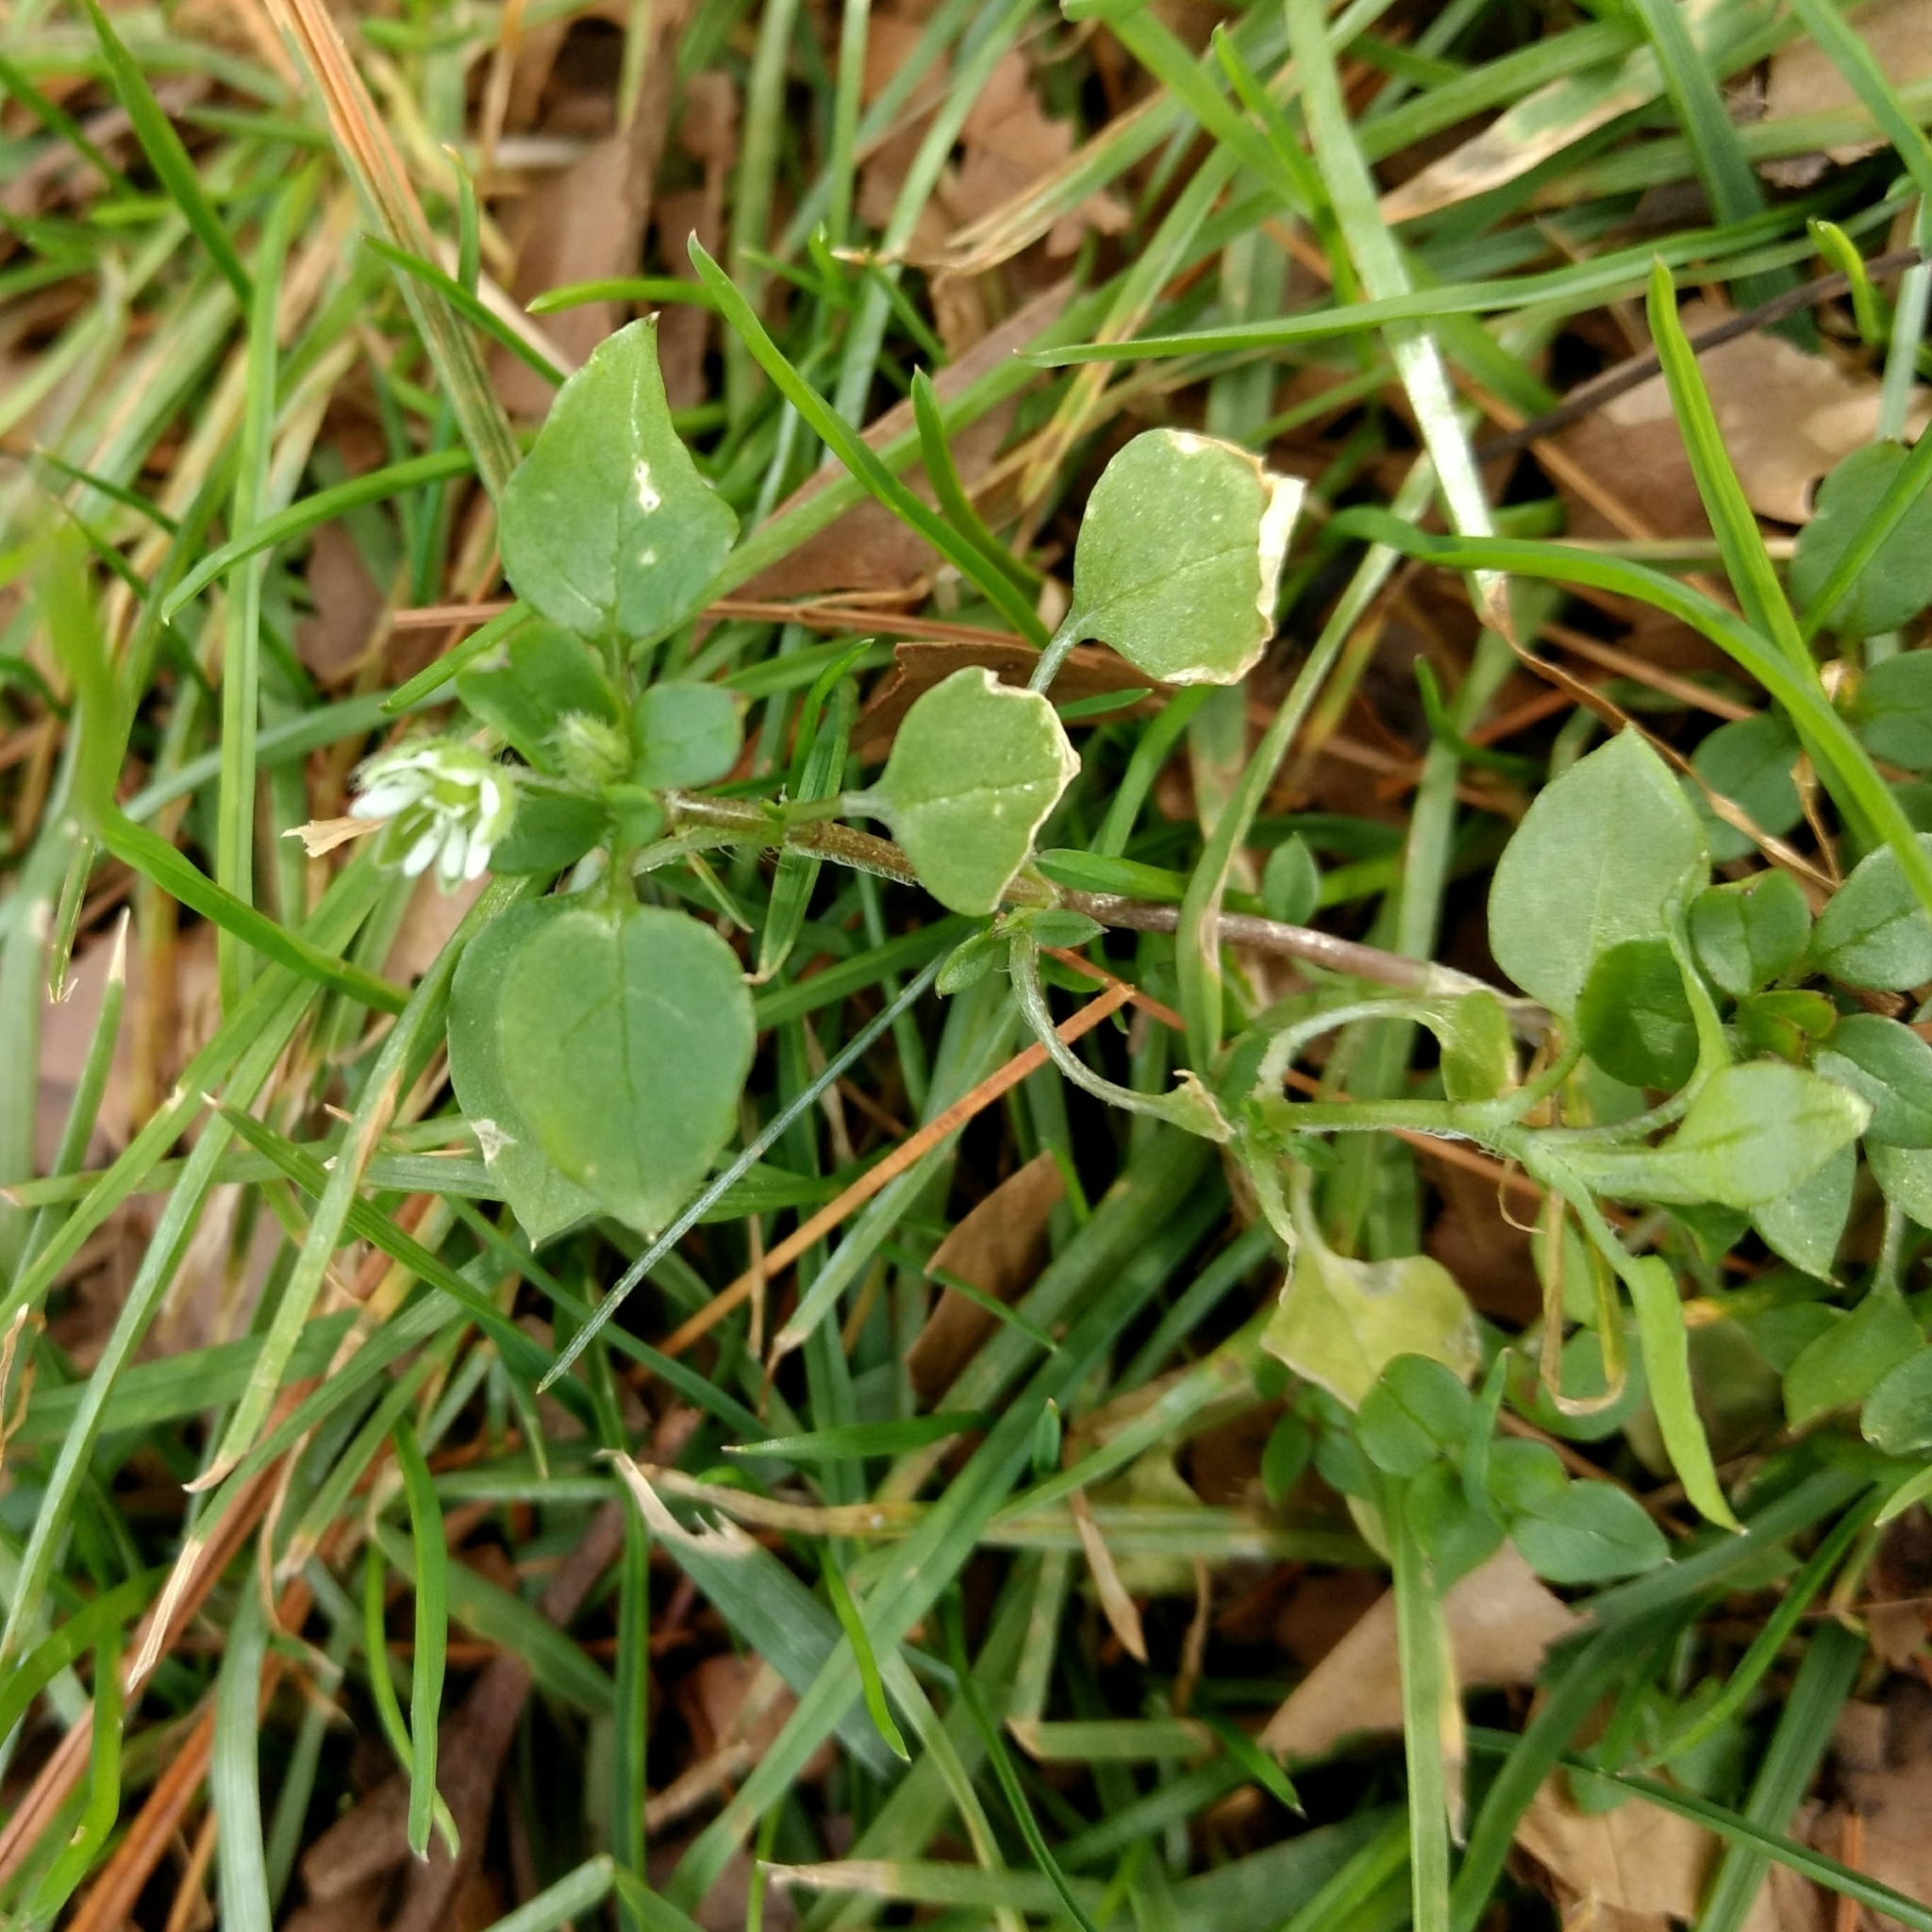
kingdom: Plantae
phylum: Tracheophyta
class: Magnoliopsida
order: Caryophyllales
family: Caryophyllaceae
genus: Stellaria
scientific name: Stellaria media
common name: Common chickweed
